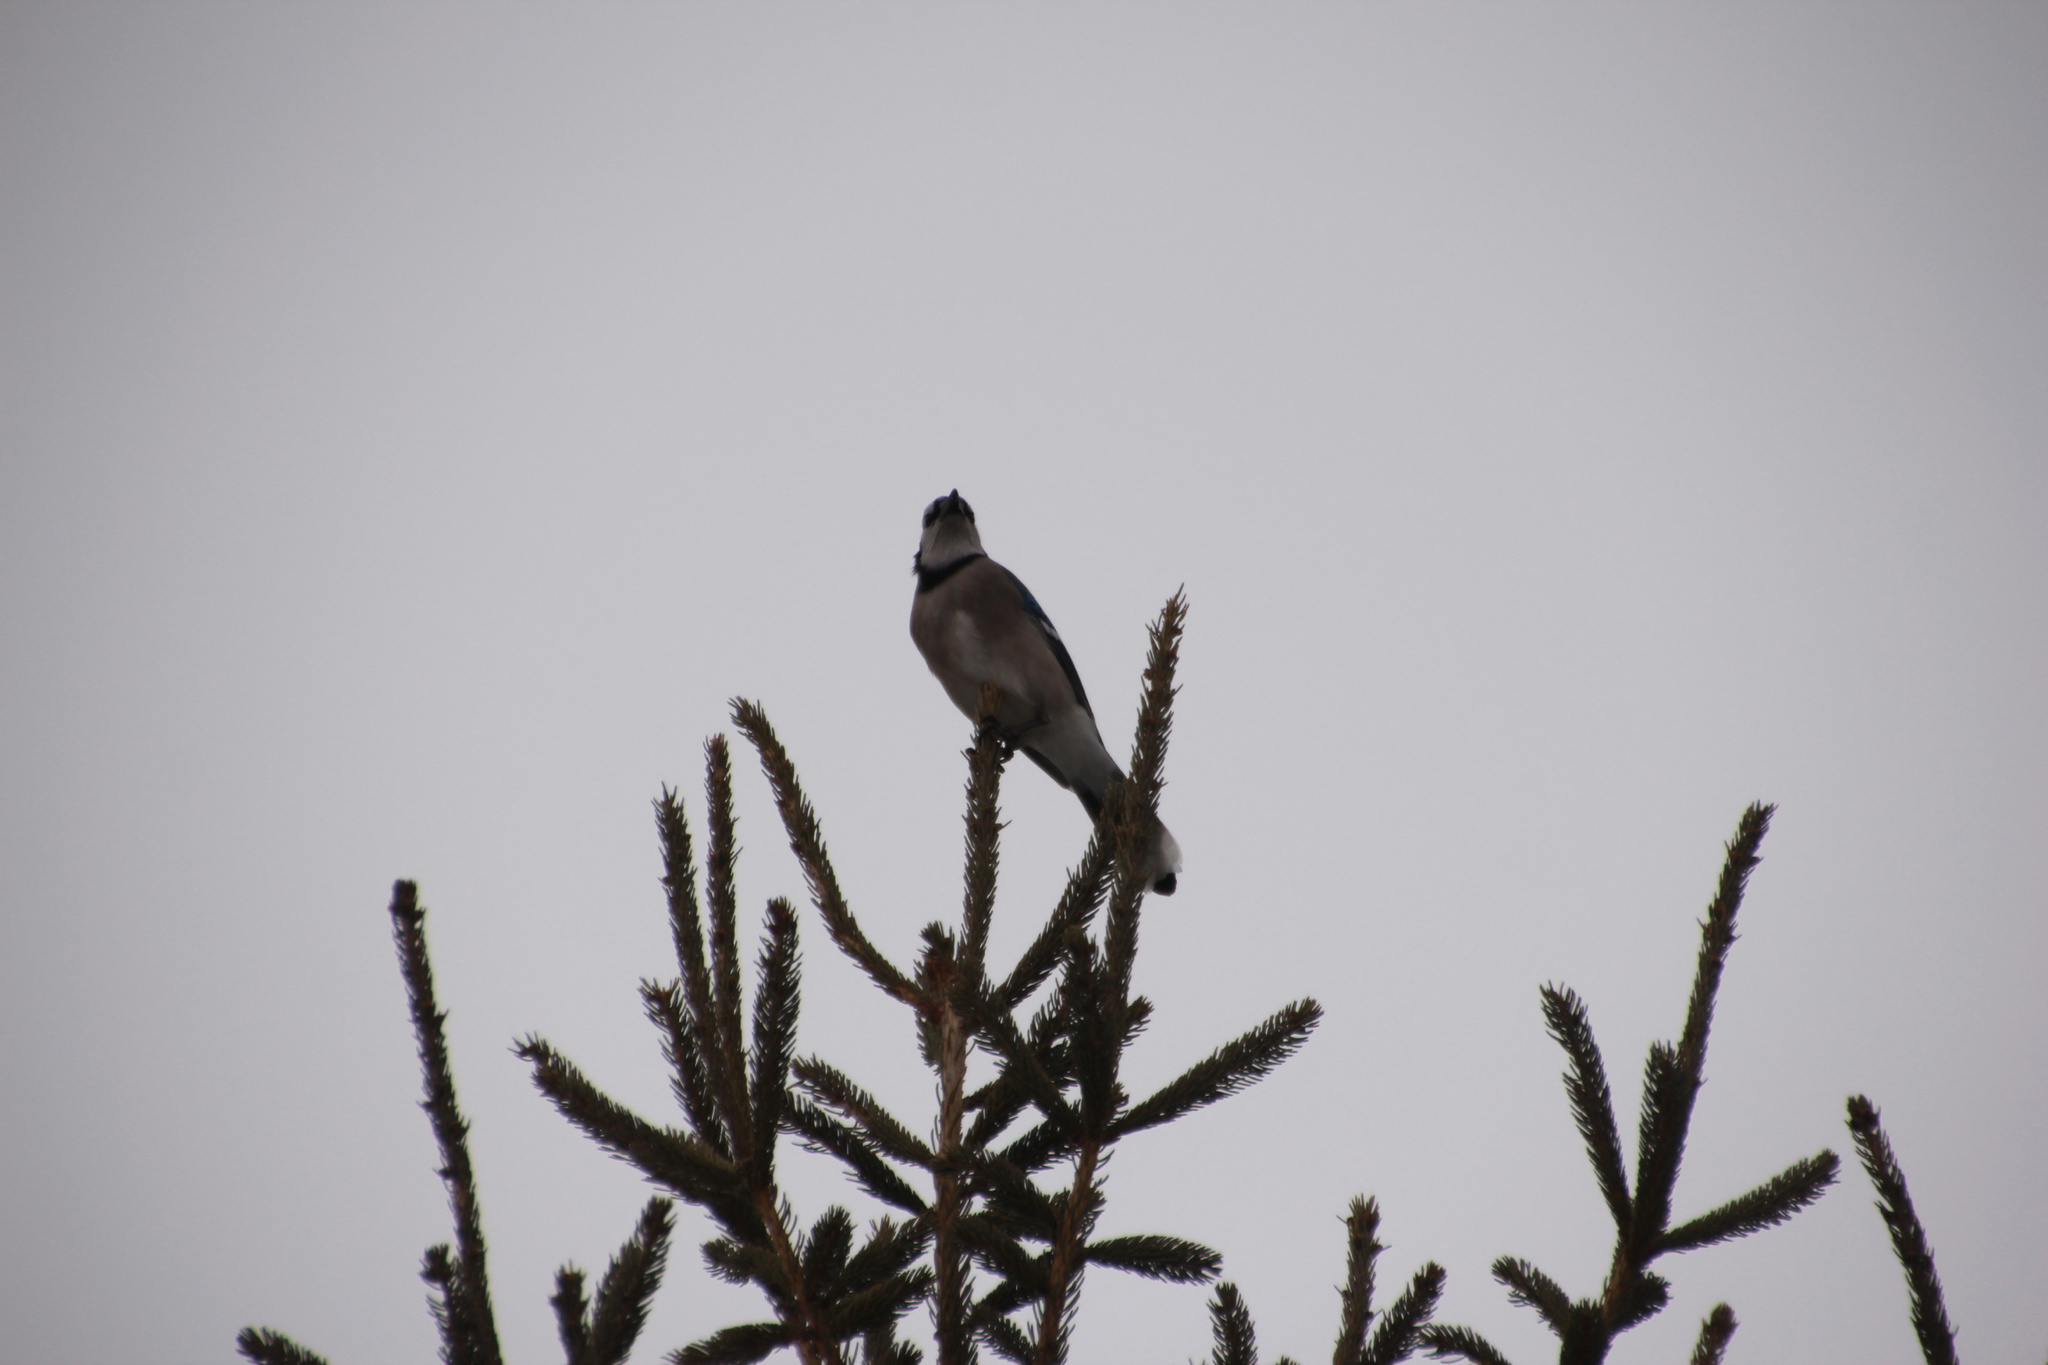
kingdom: Animalia
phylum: Chordata
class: Aves
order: Passeriformes
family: Corvidae
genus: Cyanocitta
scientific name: Cyanocitta cristata
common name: Blue jay
